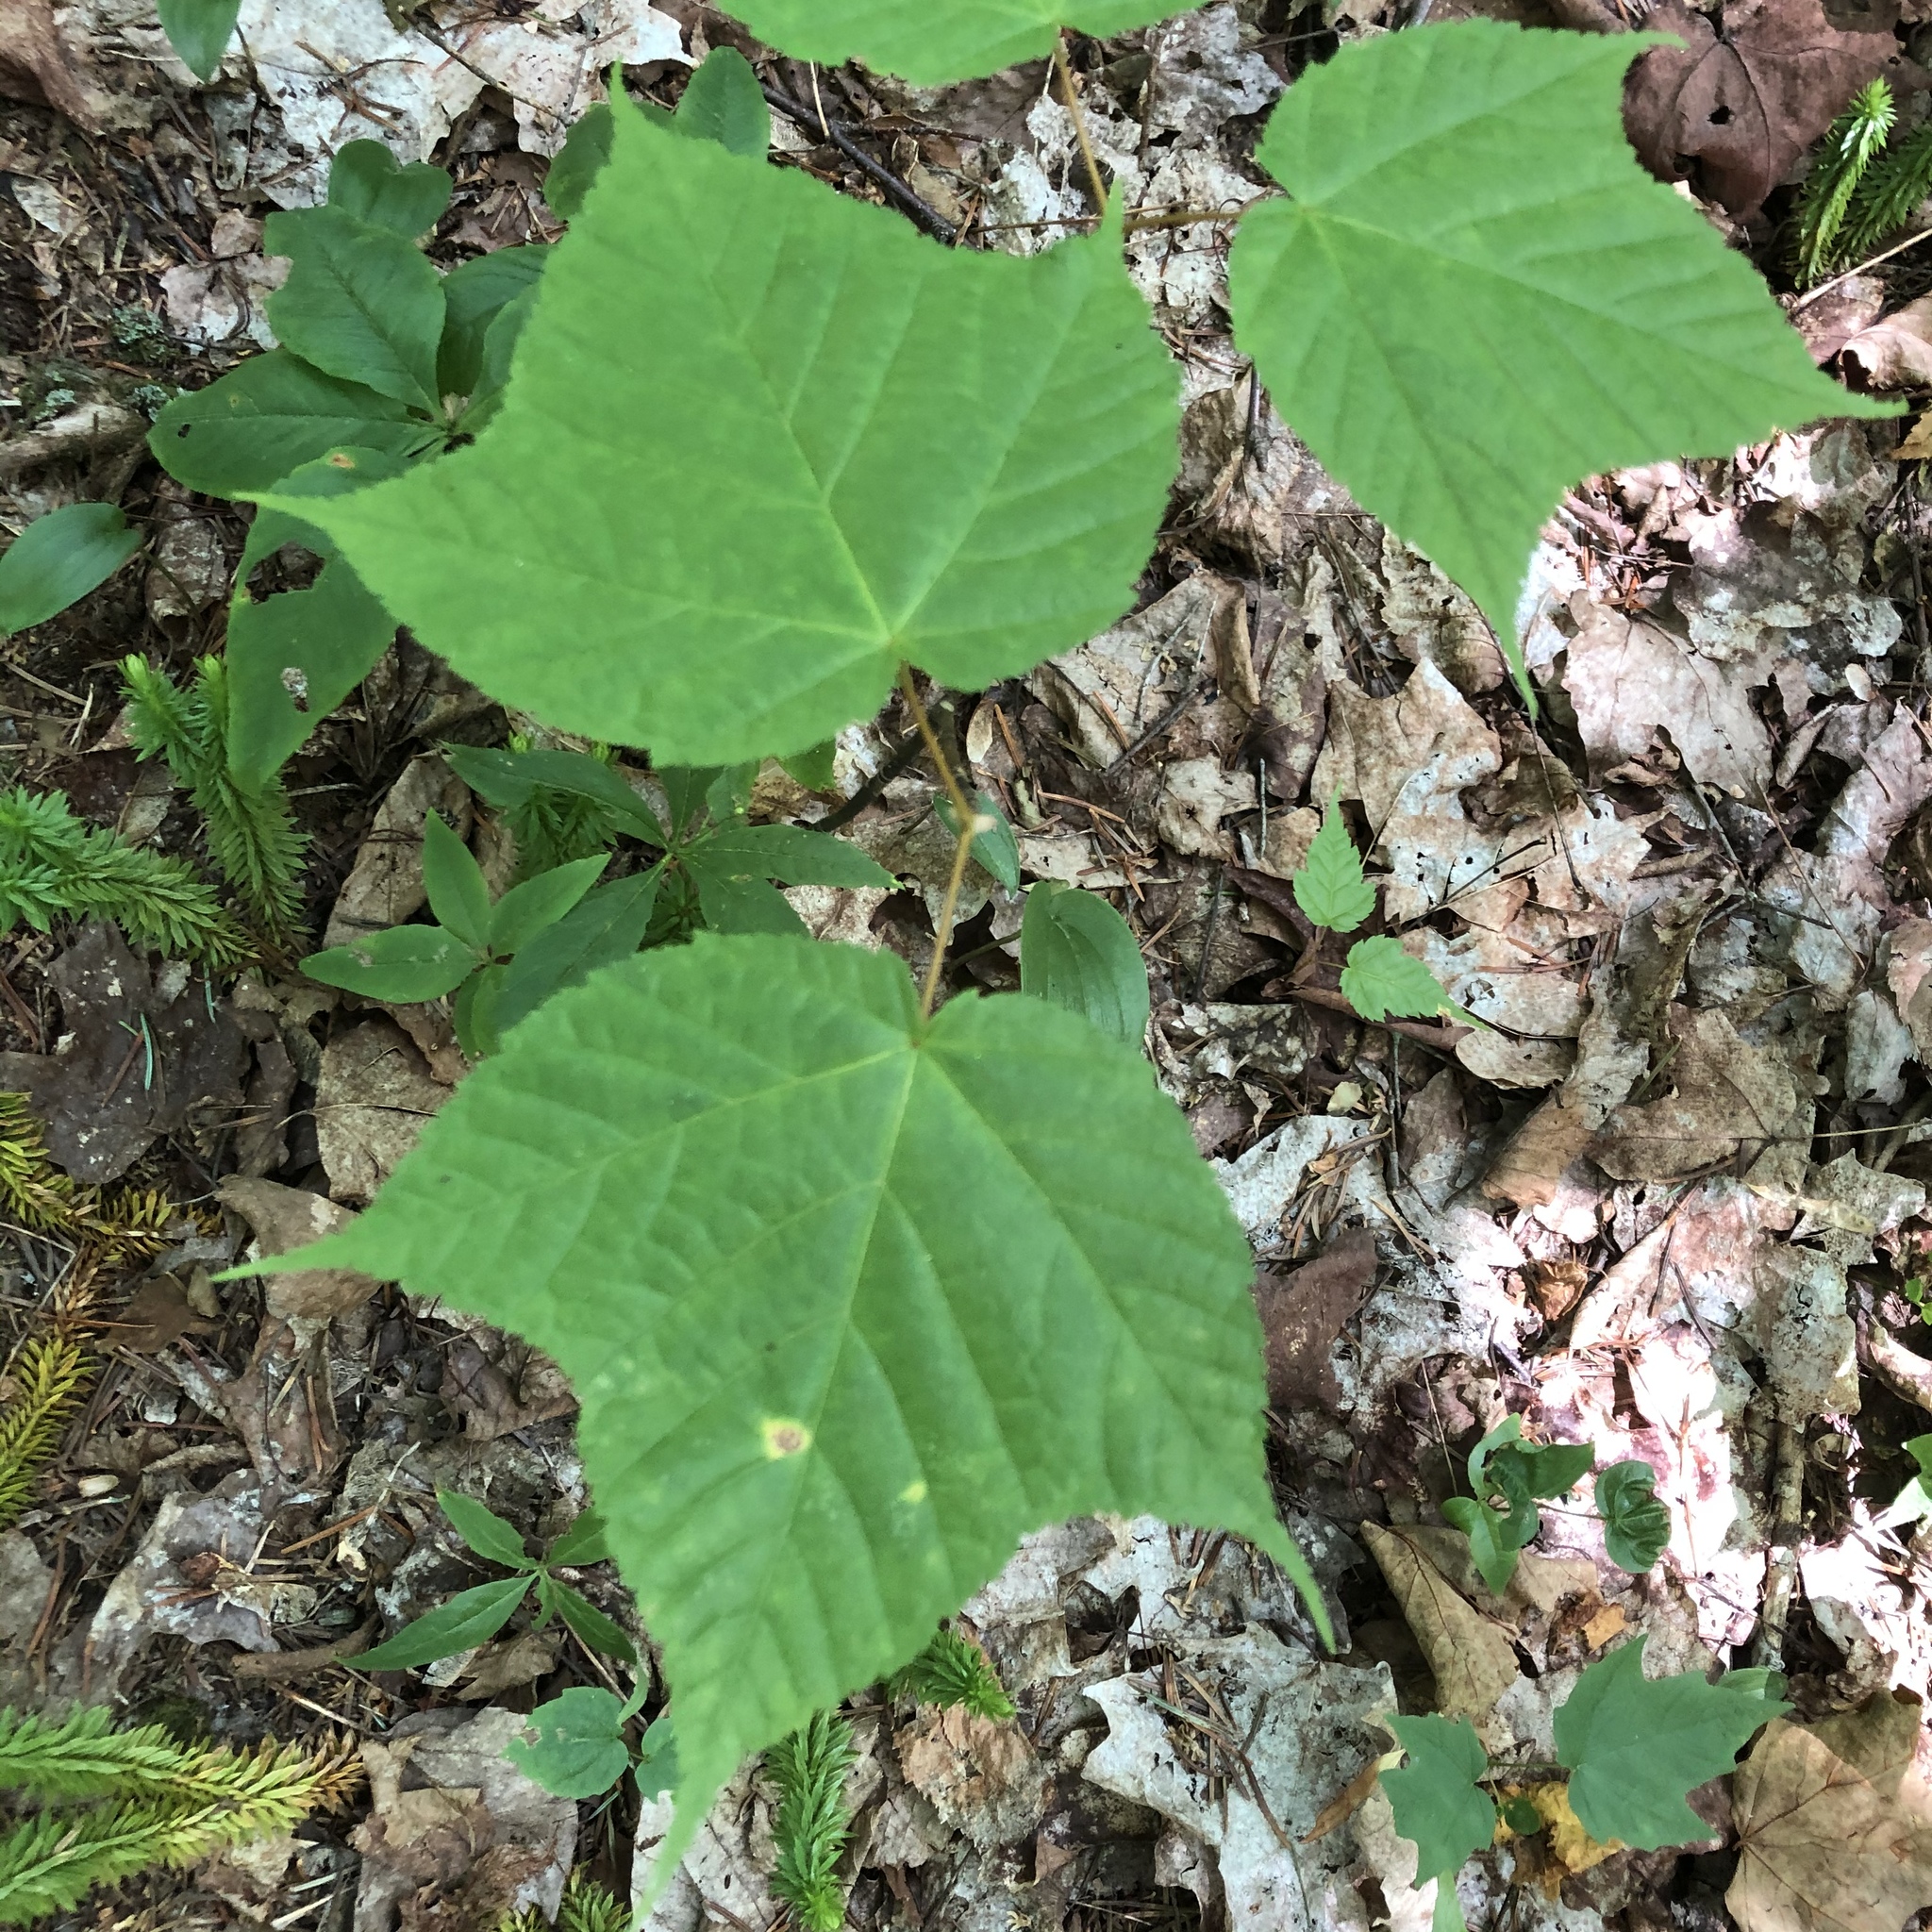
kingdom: Plantae
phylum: Tracheophyta
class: Magnoliopsida
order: Sapindales
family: Sapindaceae
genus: Acer
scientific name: Acer pensylvanicum
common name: Moosewood
